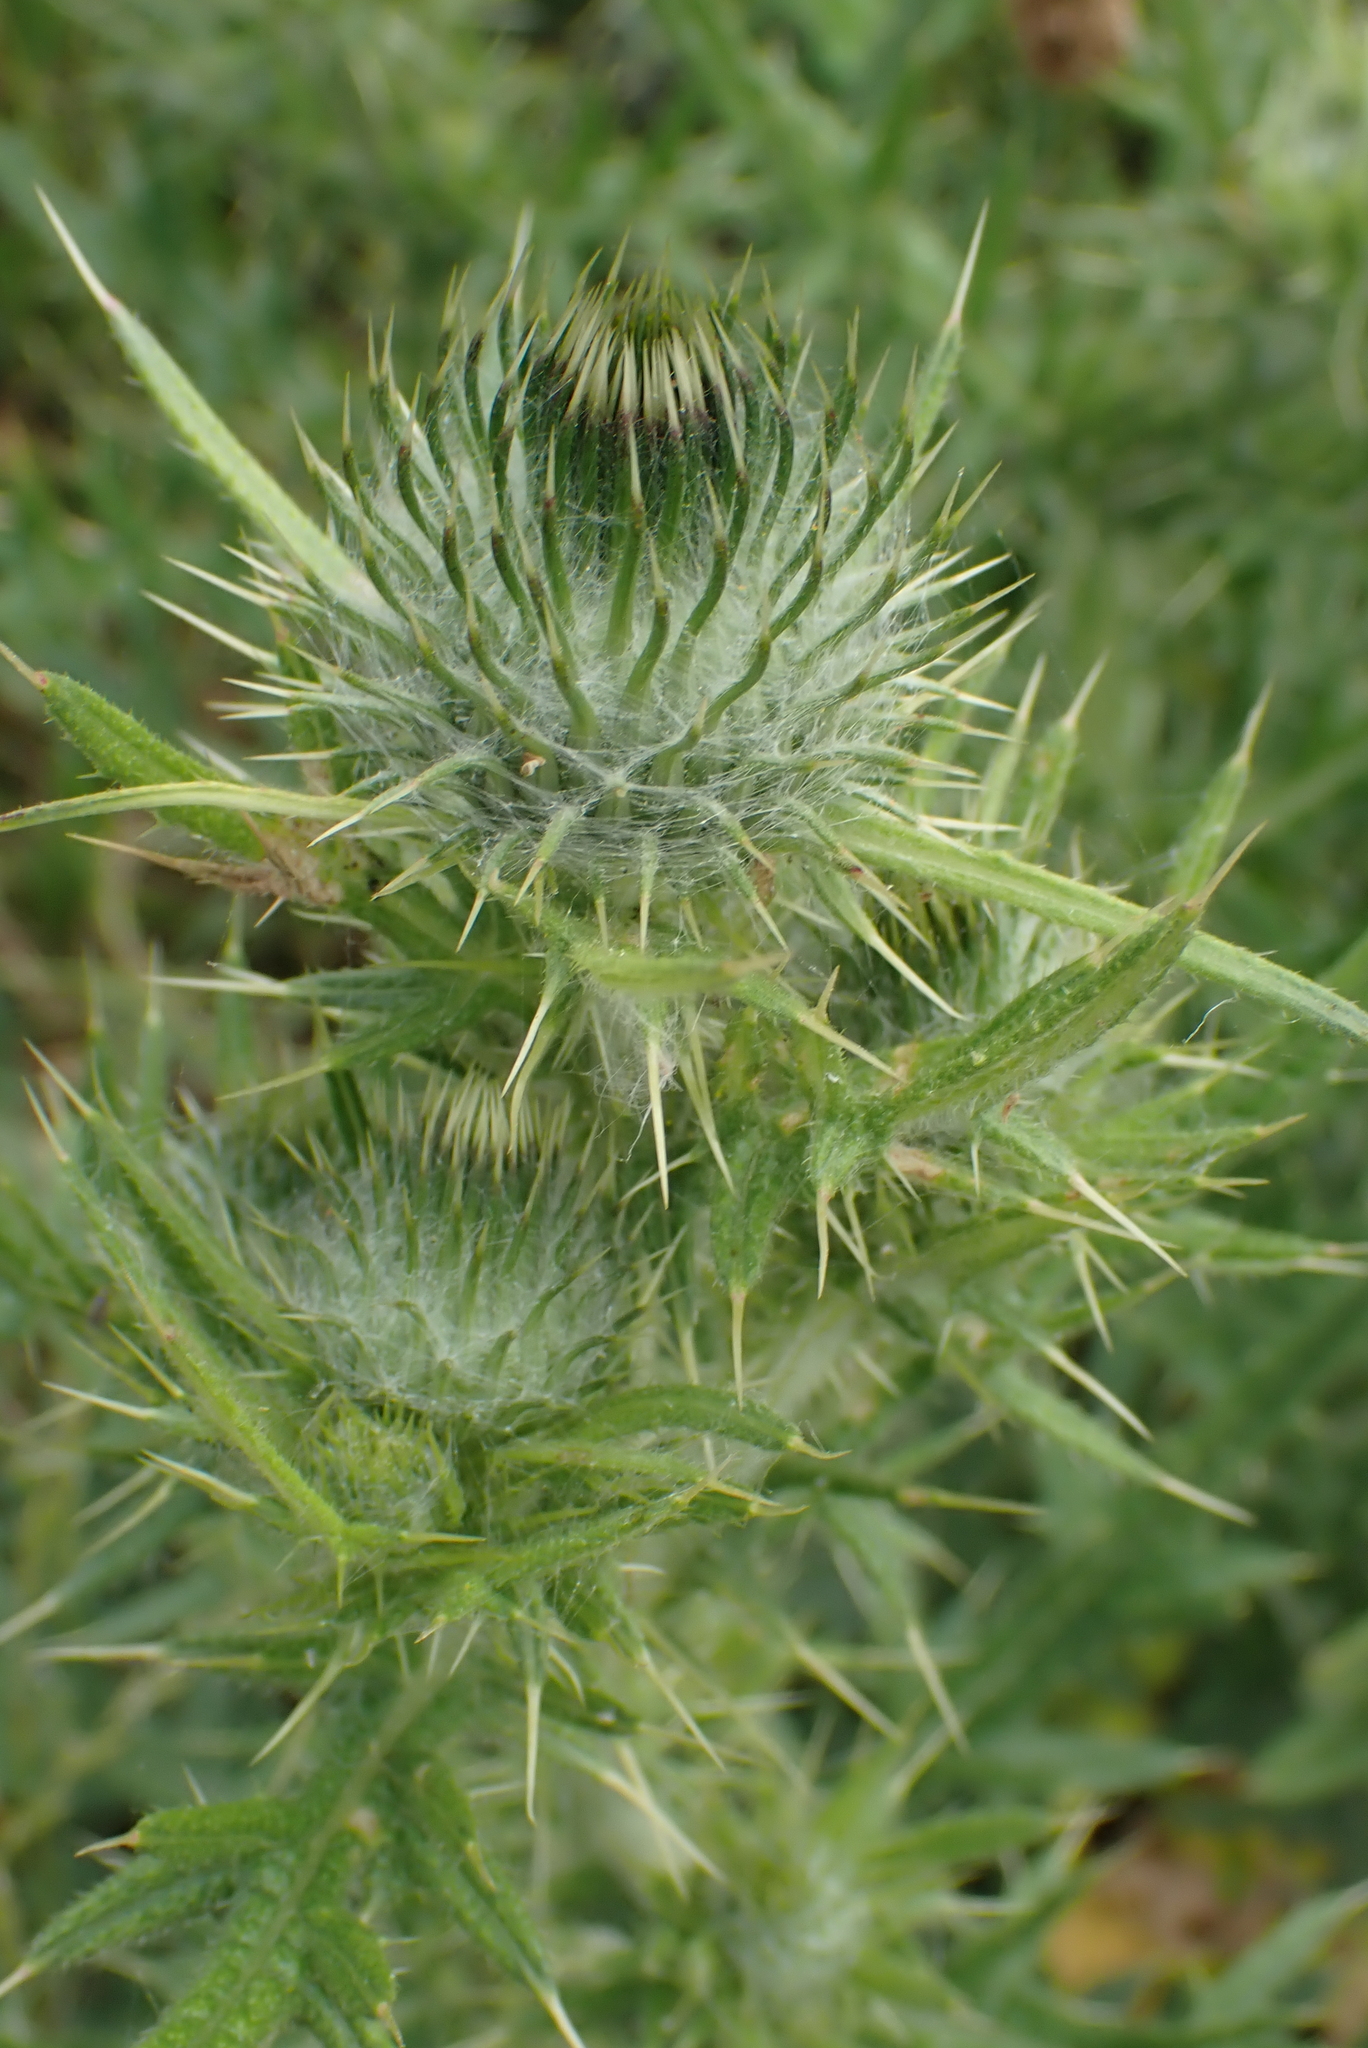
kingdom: Plantae
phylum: Tracheophyta
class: Magnoliopsida
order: Asterales
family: Asteraceae
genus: Cirsium
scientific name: Cirsium vulgare
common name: Bull thistle
